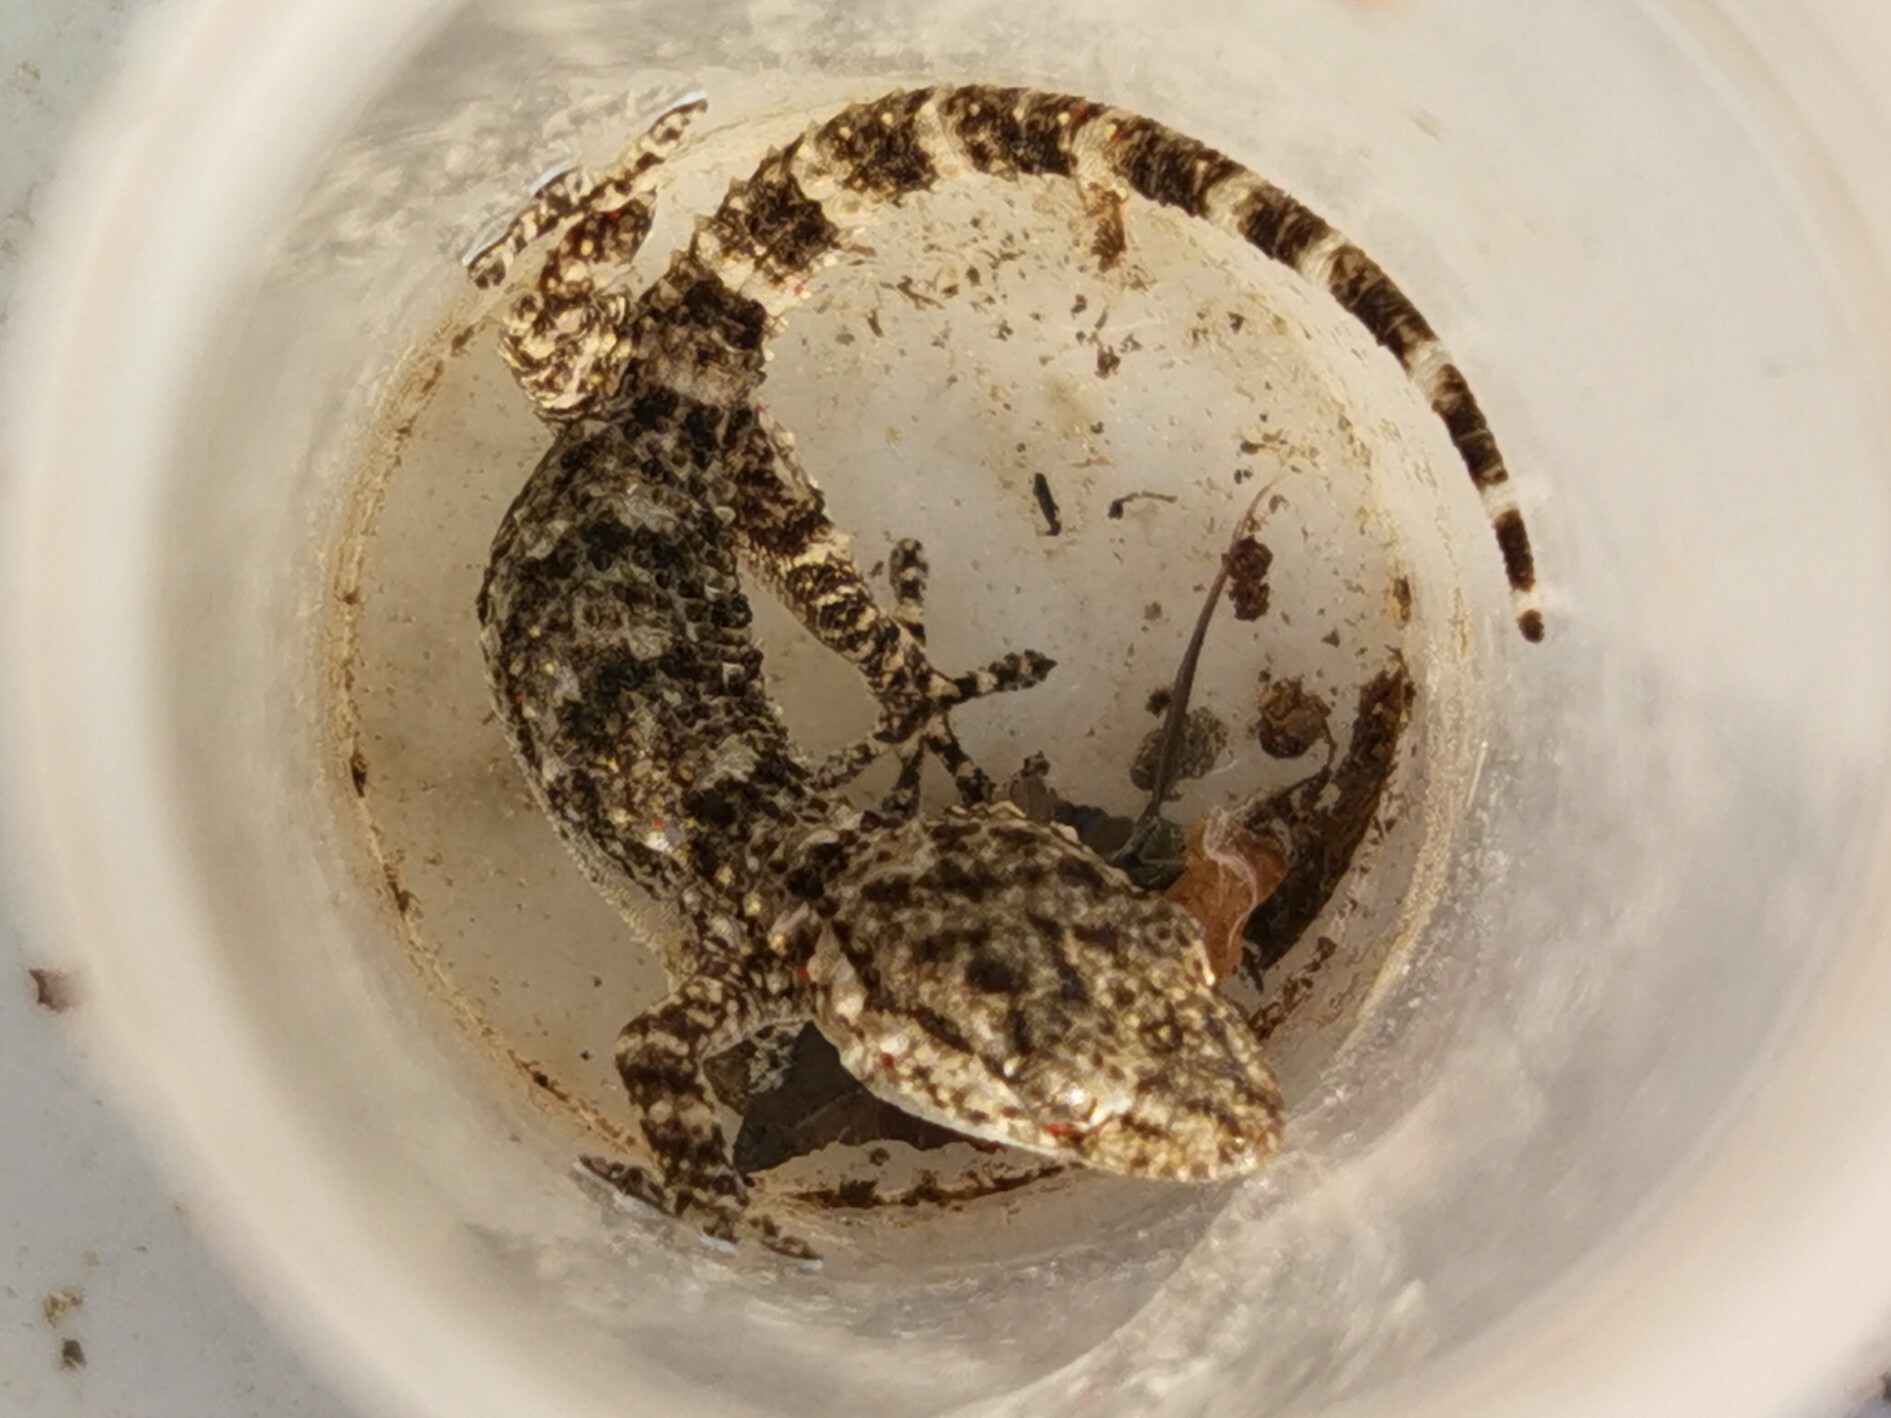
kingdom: Animalia
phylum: Chordata
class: Squamata
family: Phyllodactylidae
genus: Tarentola
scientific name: Tarentola mauritanica
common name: Moorish gecko
